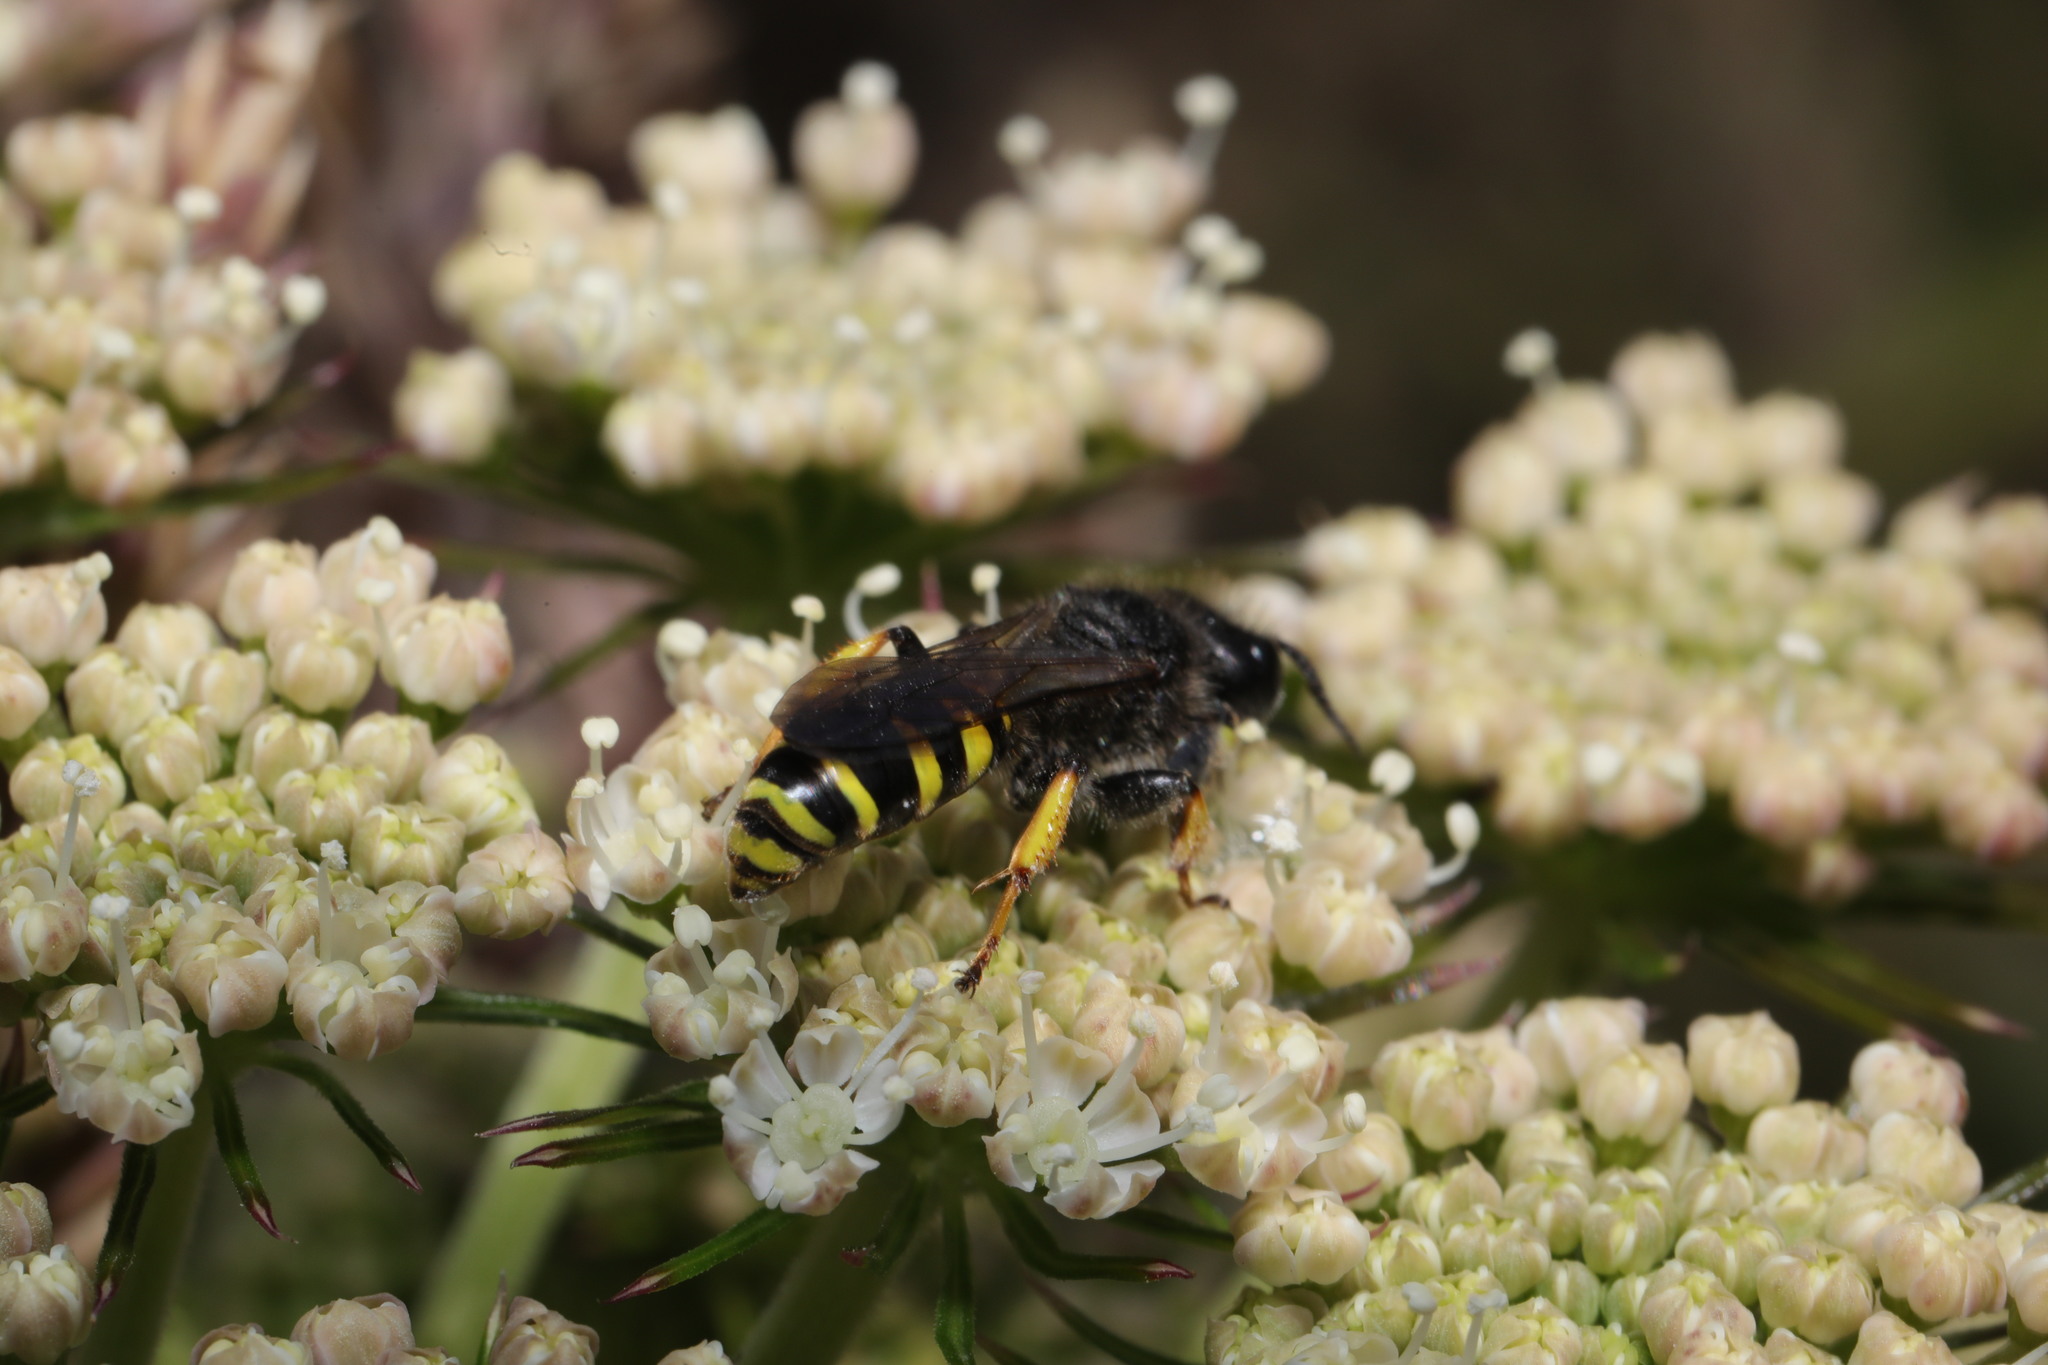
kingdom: Animalia
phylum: Arthropoda
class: Insecta
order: Hymenoptera
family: Crabronidae
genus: Crabro
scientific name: Crabro cribrarius
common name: Slender bodied digger wasp
